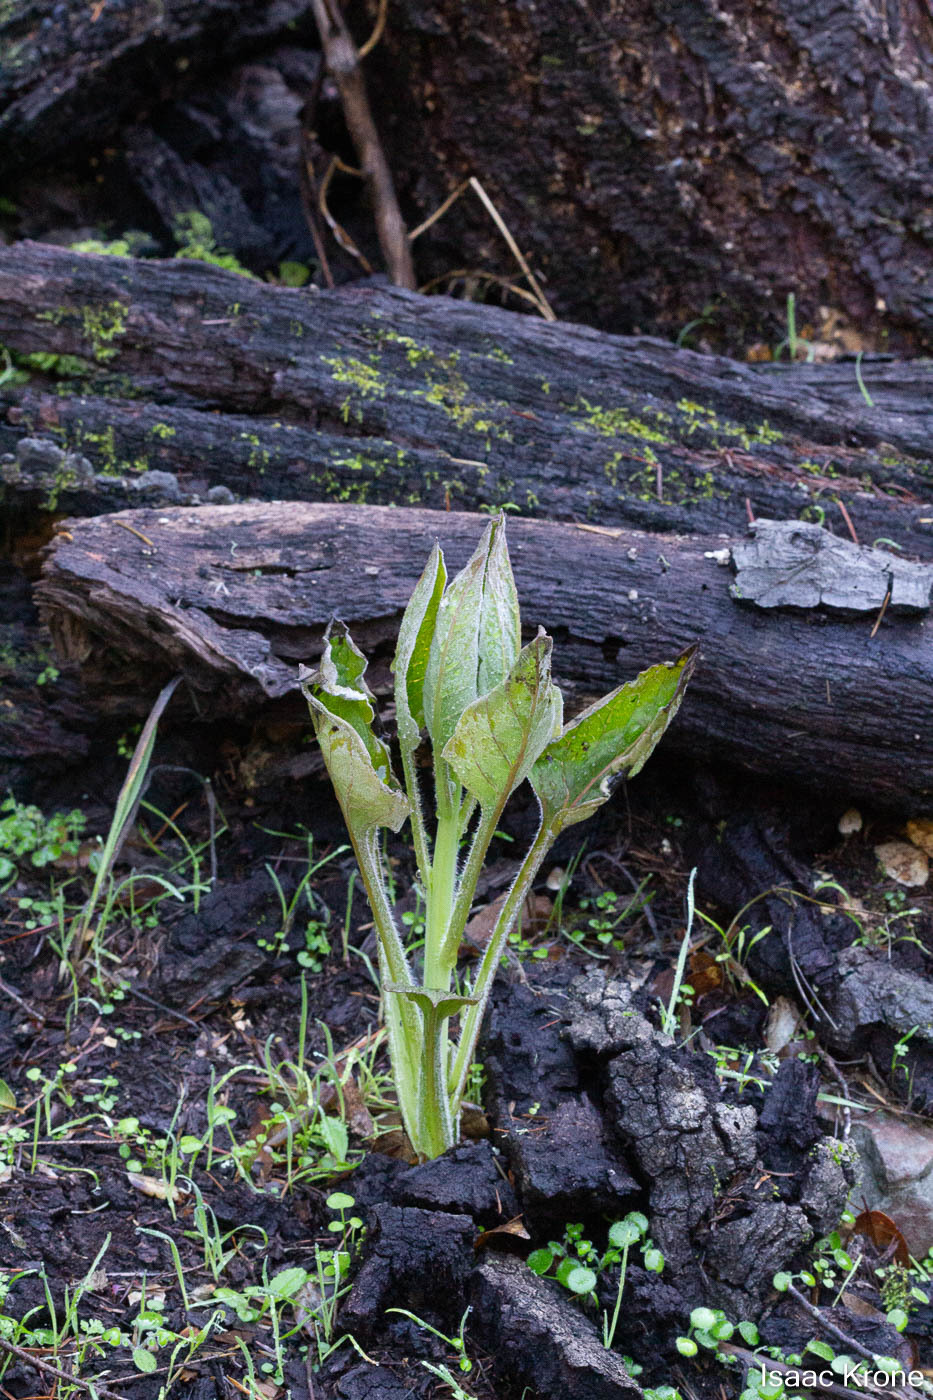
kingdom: Plantae
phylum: Tracheophyta
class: Magnoliopsida
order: Boraginales
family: Boraginaceae
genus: Adelinia
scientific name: Adelinia grande
